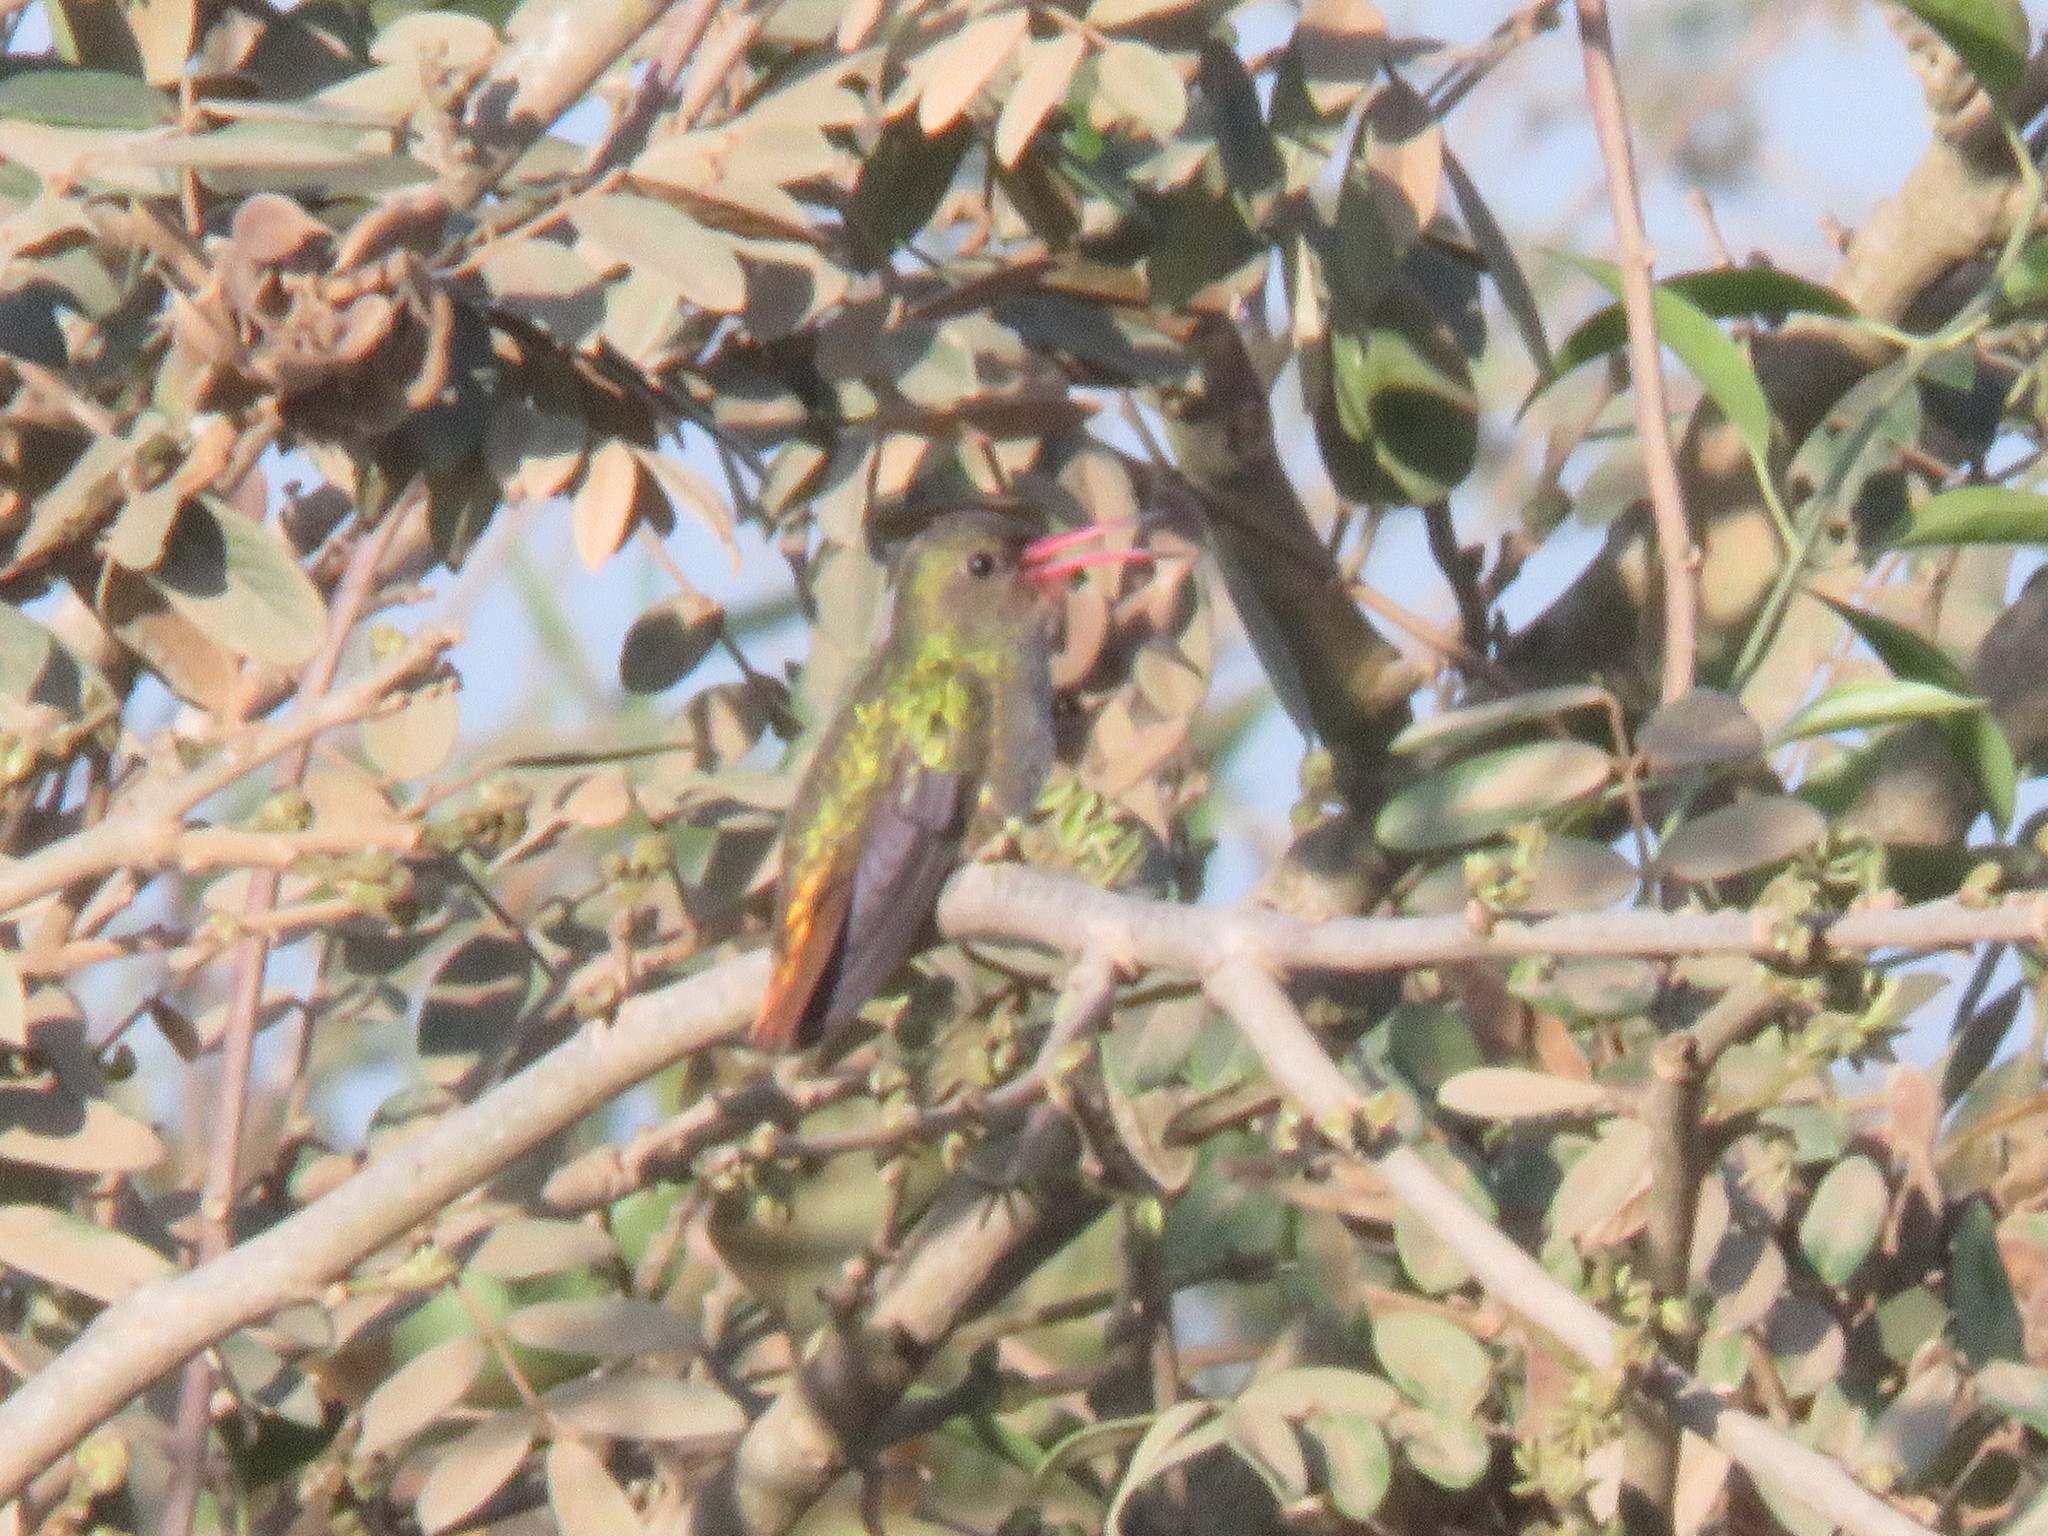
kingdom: Animalia
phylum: Chordata
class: Aves
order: Apodiformes
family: Trochilidae
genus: Hylocharis
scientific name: Hylocharis chrysura
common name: Gilded sapphire
